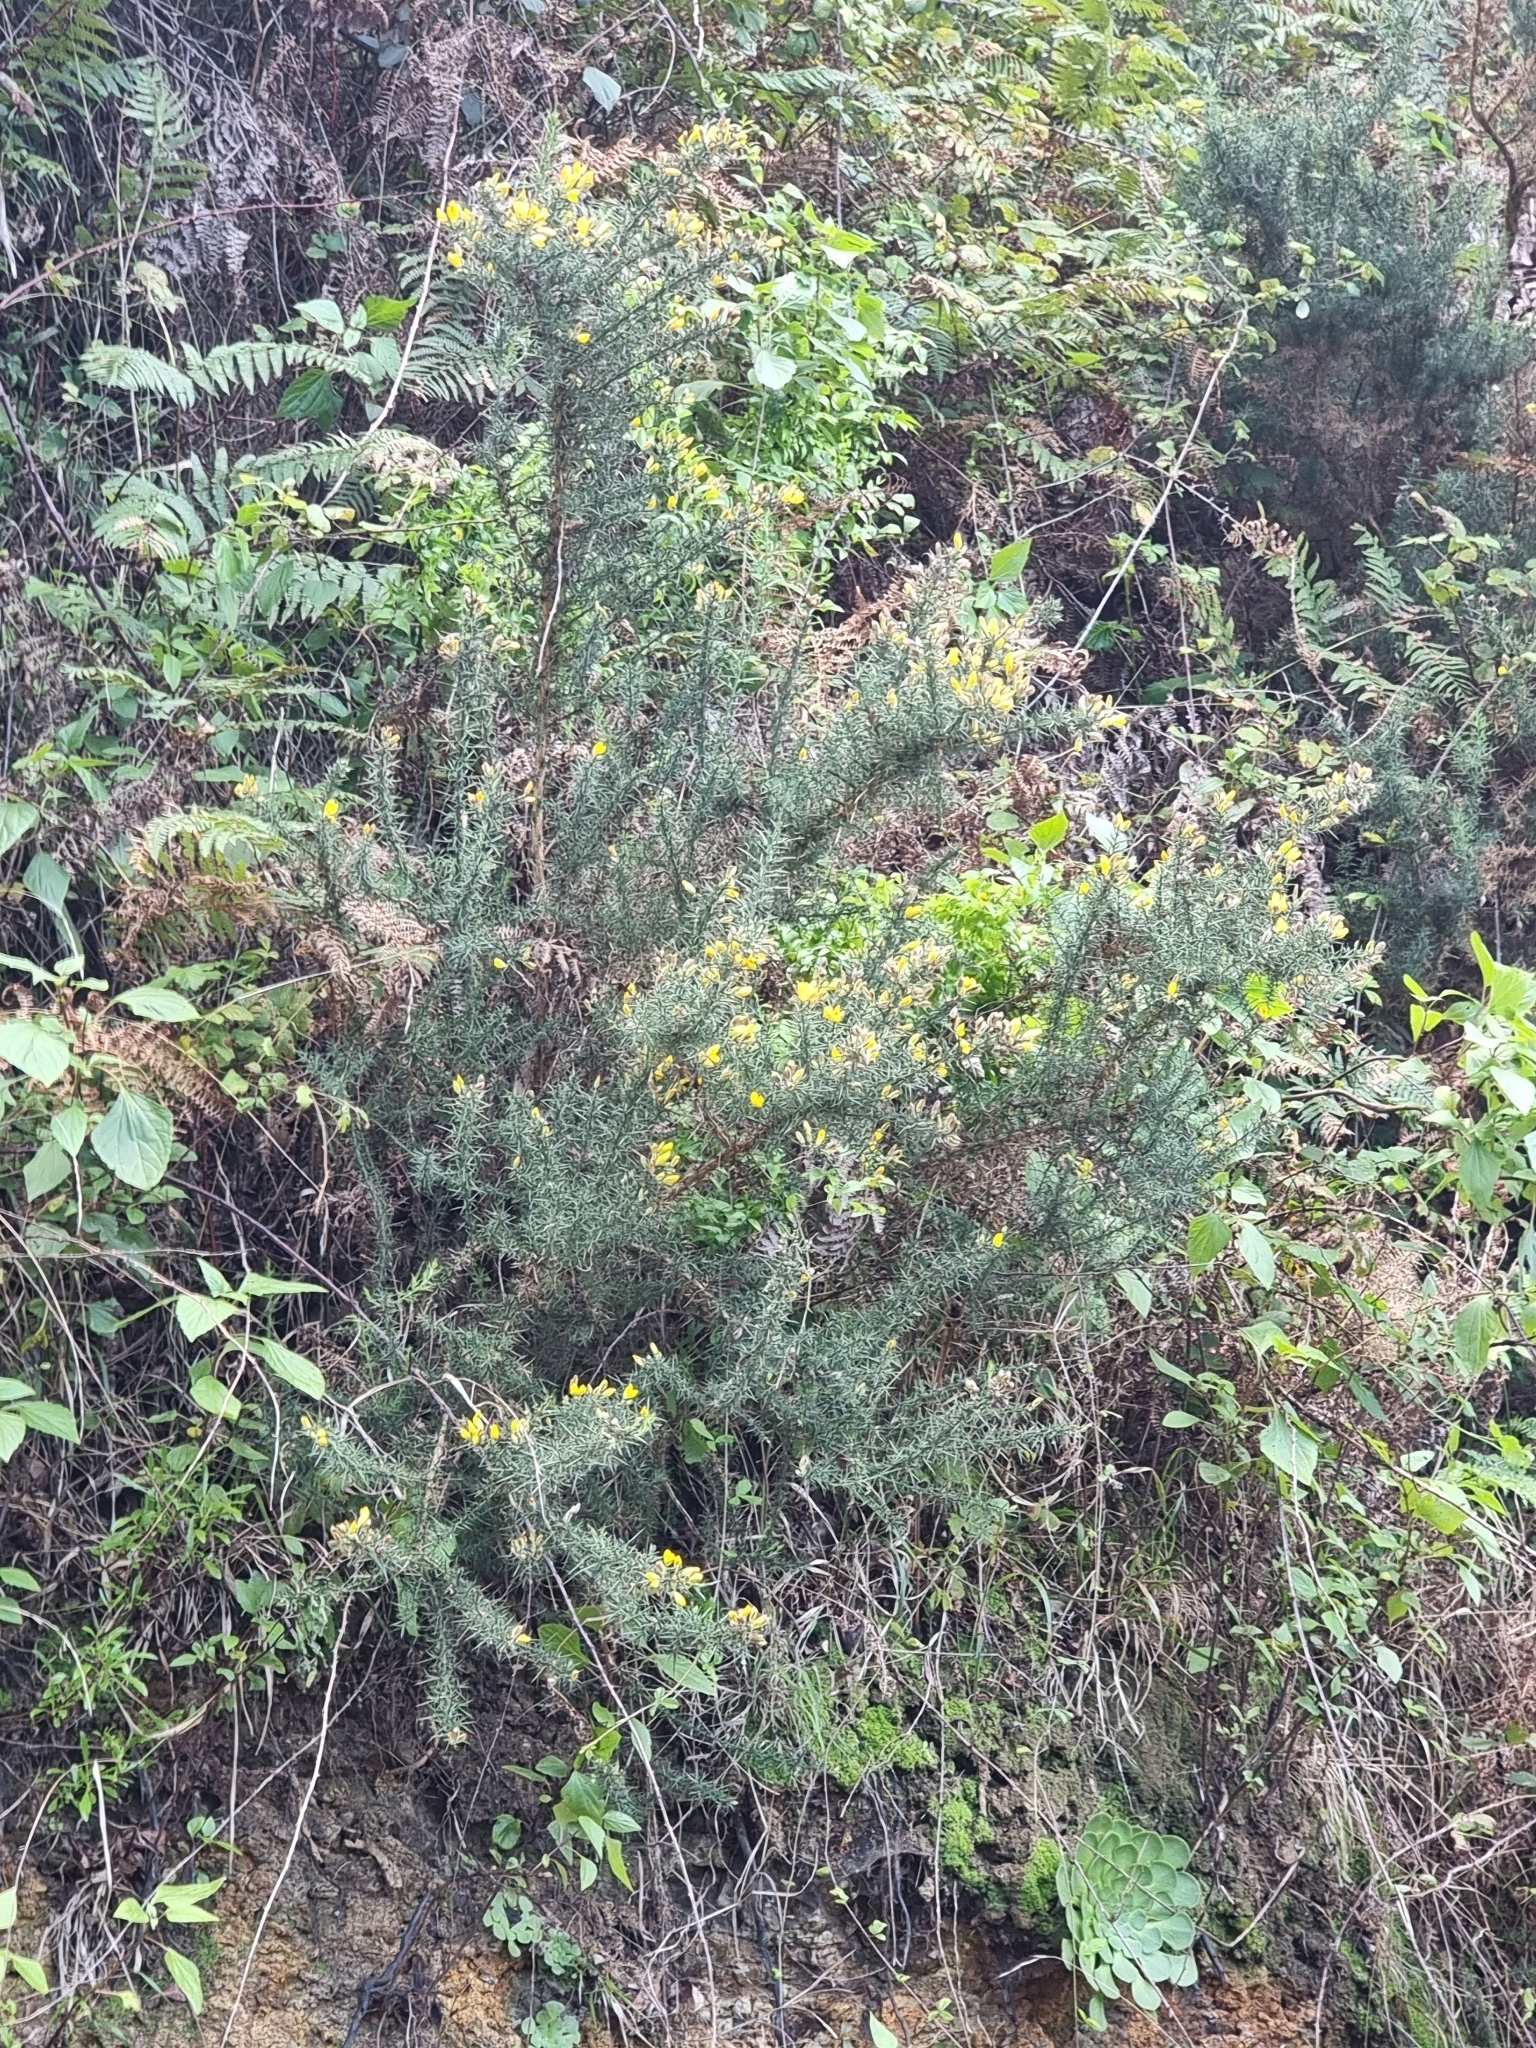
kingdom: Plantae
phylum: Tracheophyta
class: Magnoliopsida
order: Fabales
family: Fabaceae
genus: Ulex
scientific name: Ulex europaeus
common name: Common gorse
